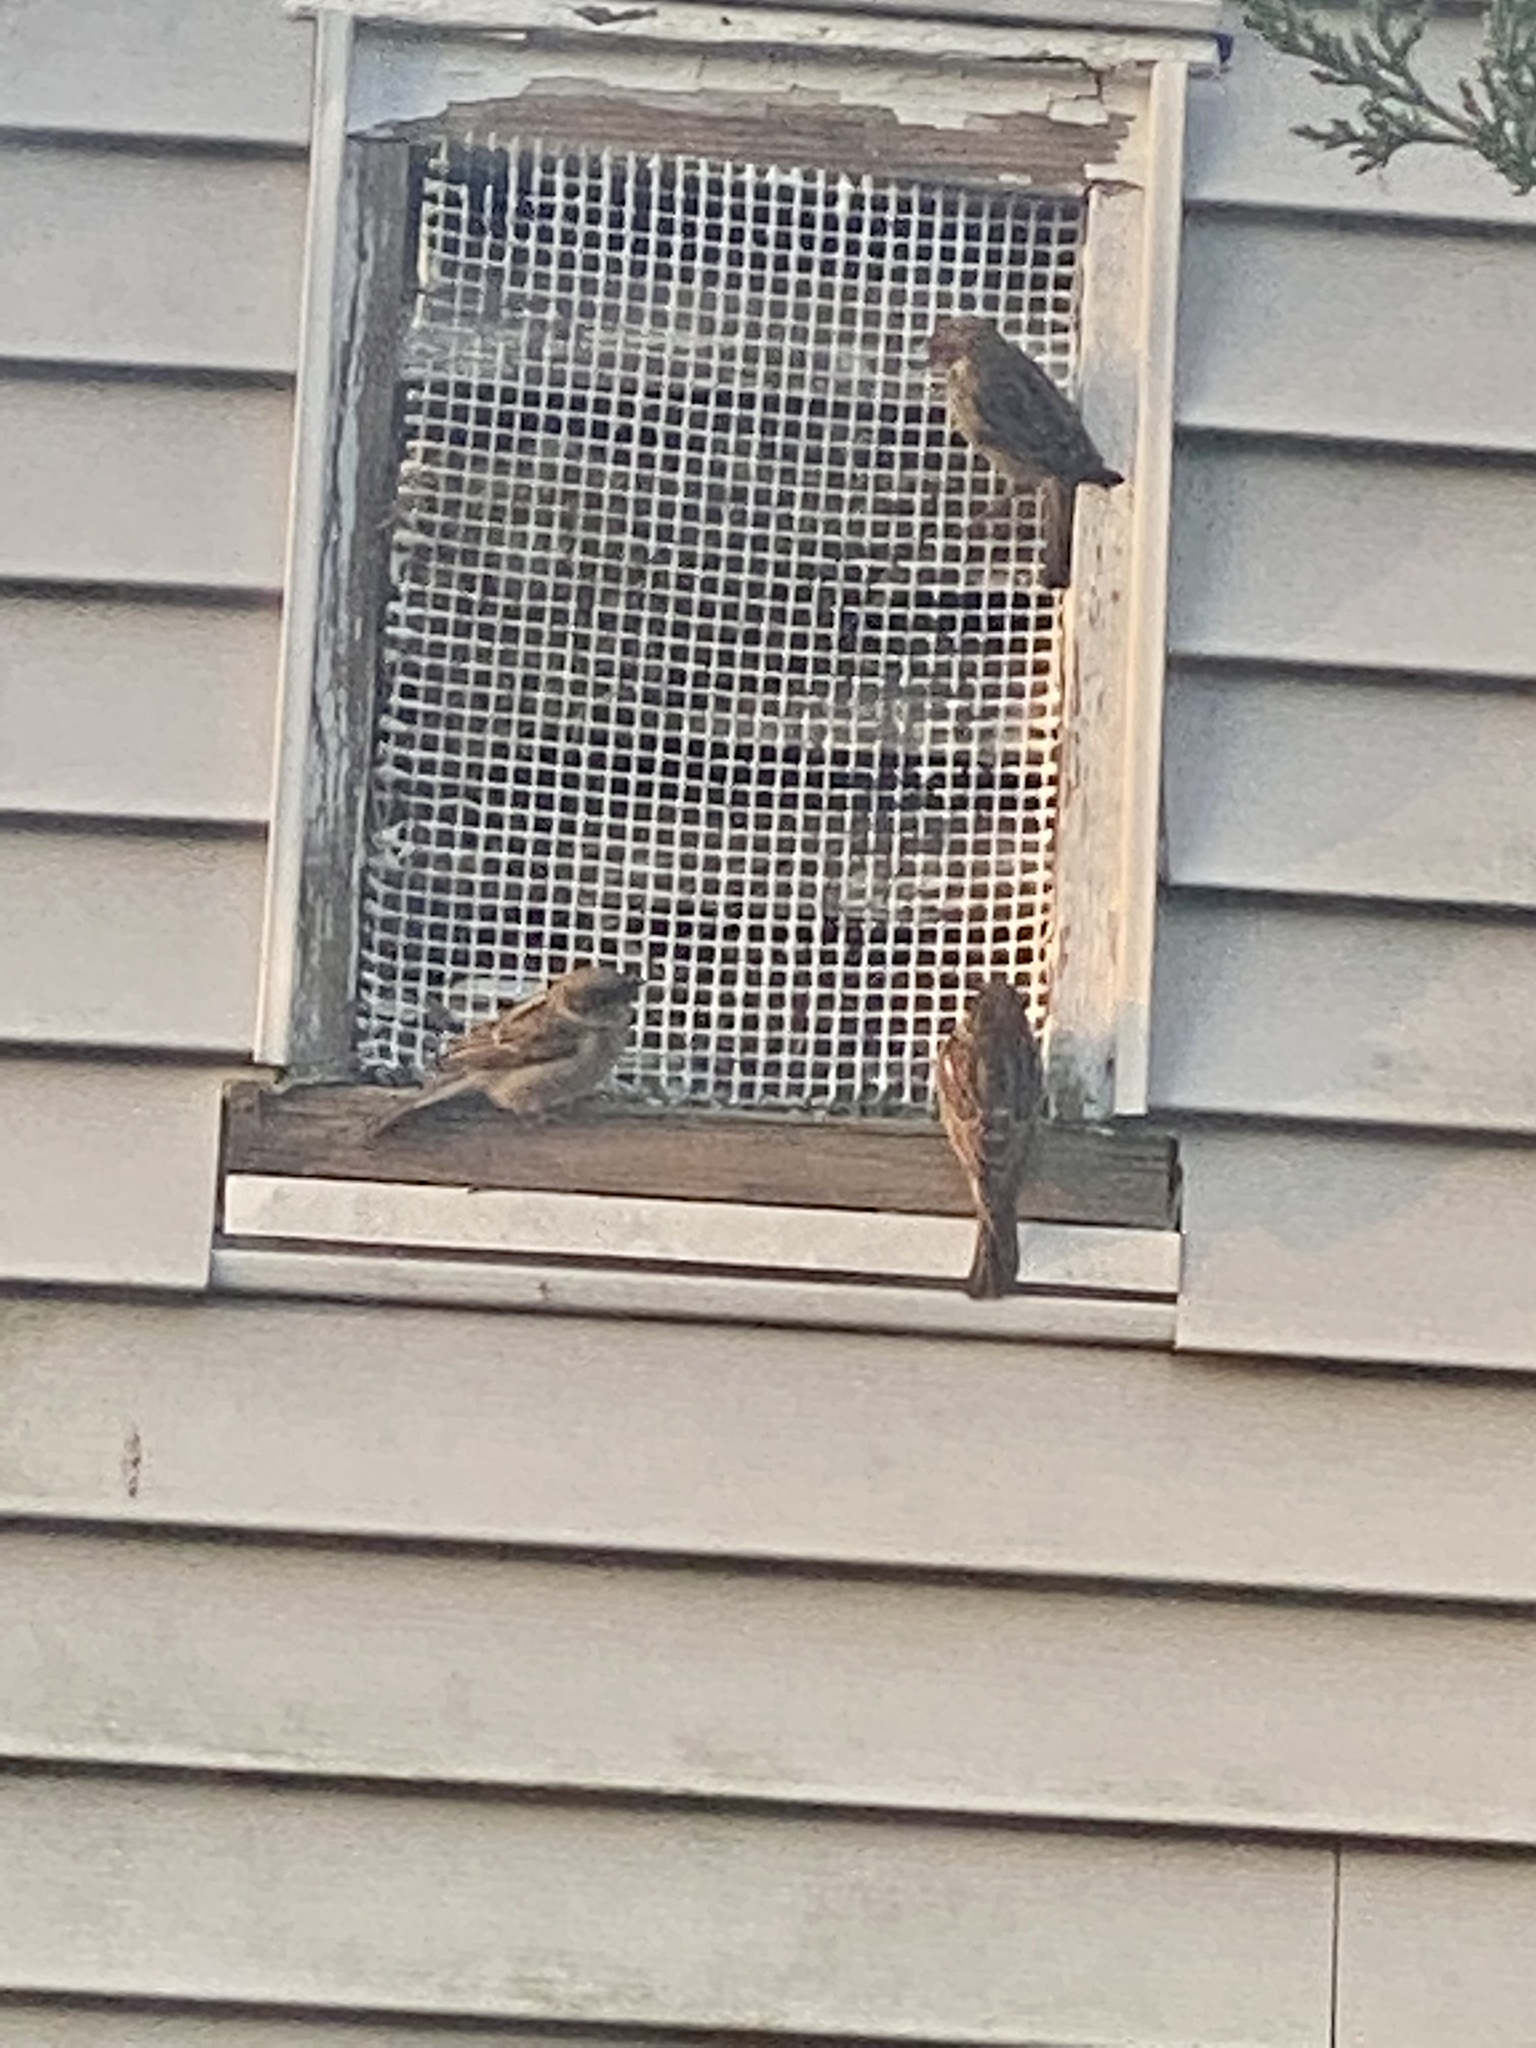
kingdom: Animalia
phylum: Chordata
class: Aves
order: Passeriformes
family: Passeridae
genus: Passer
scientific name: Passer domesticus
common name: House sparrow
